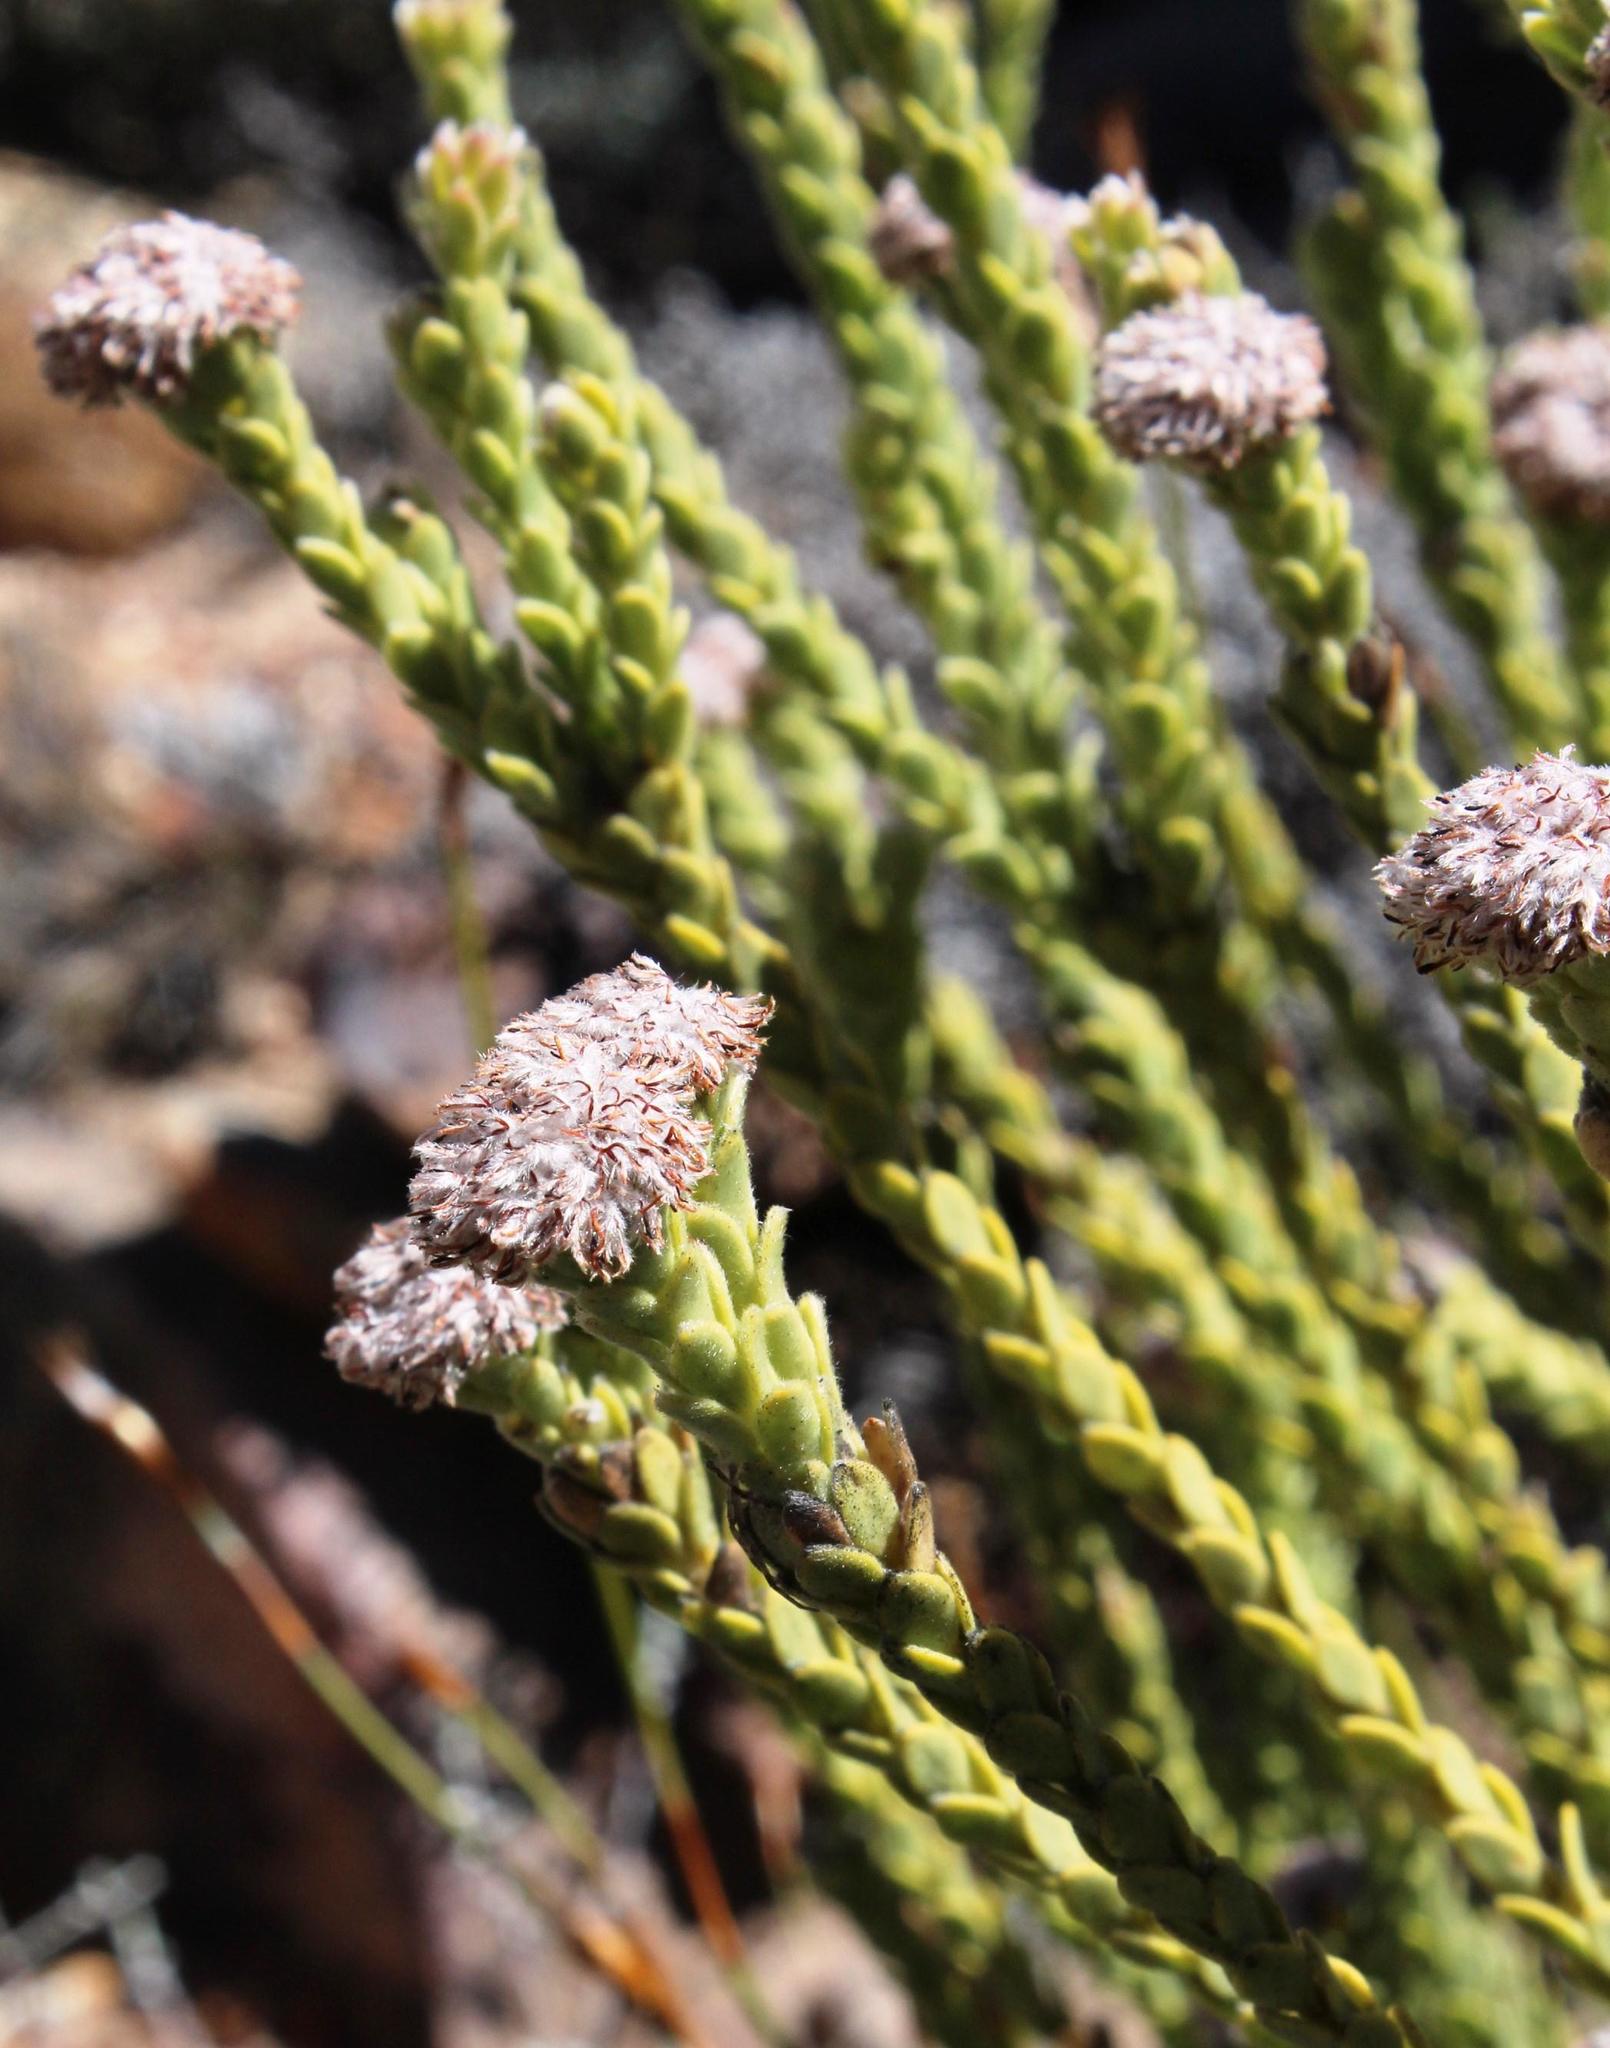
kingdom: Plantae
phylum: Tracheophyta
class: Magnoliopsida
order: Proteales
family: Proteaceae
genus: Leucadendron
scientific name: Leucadendron dubium
